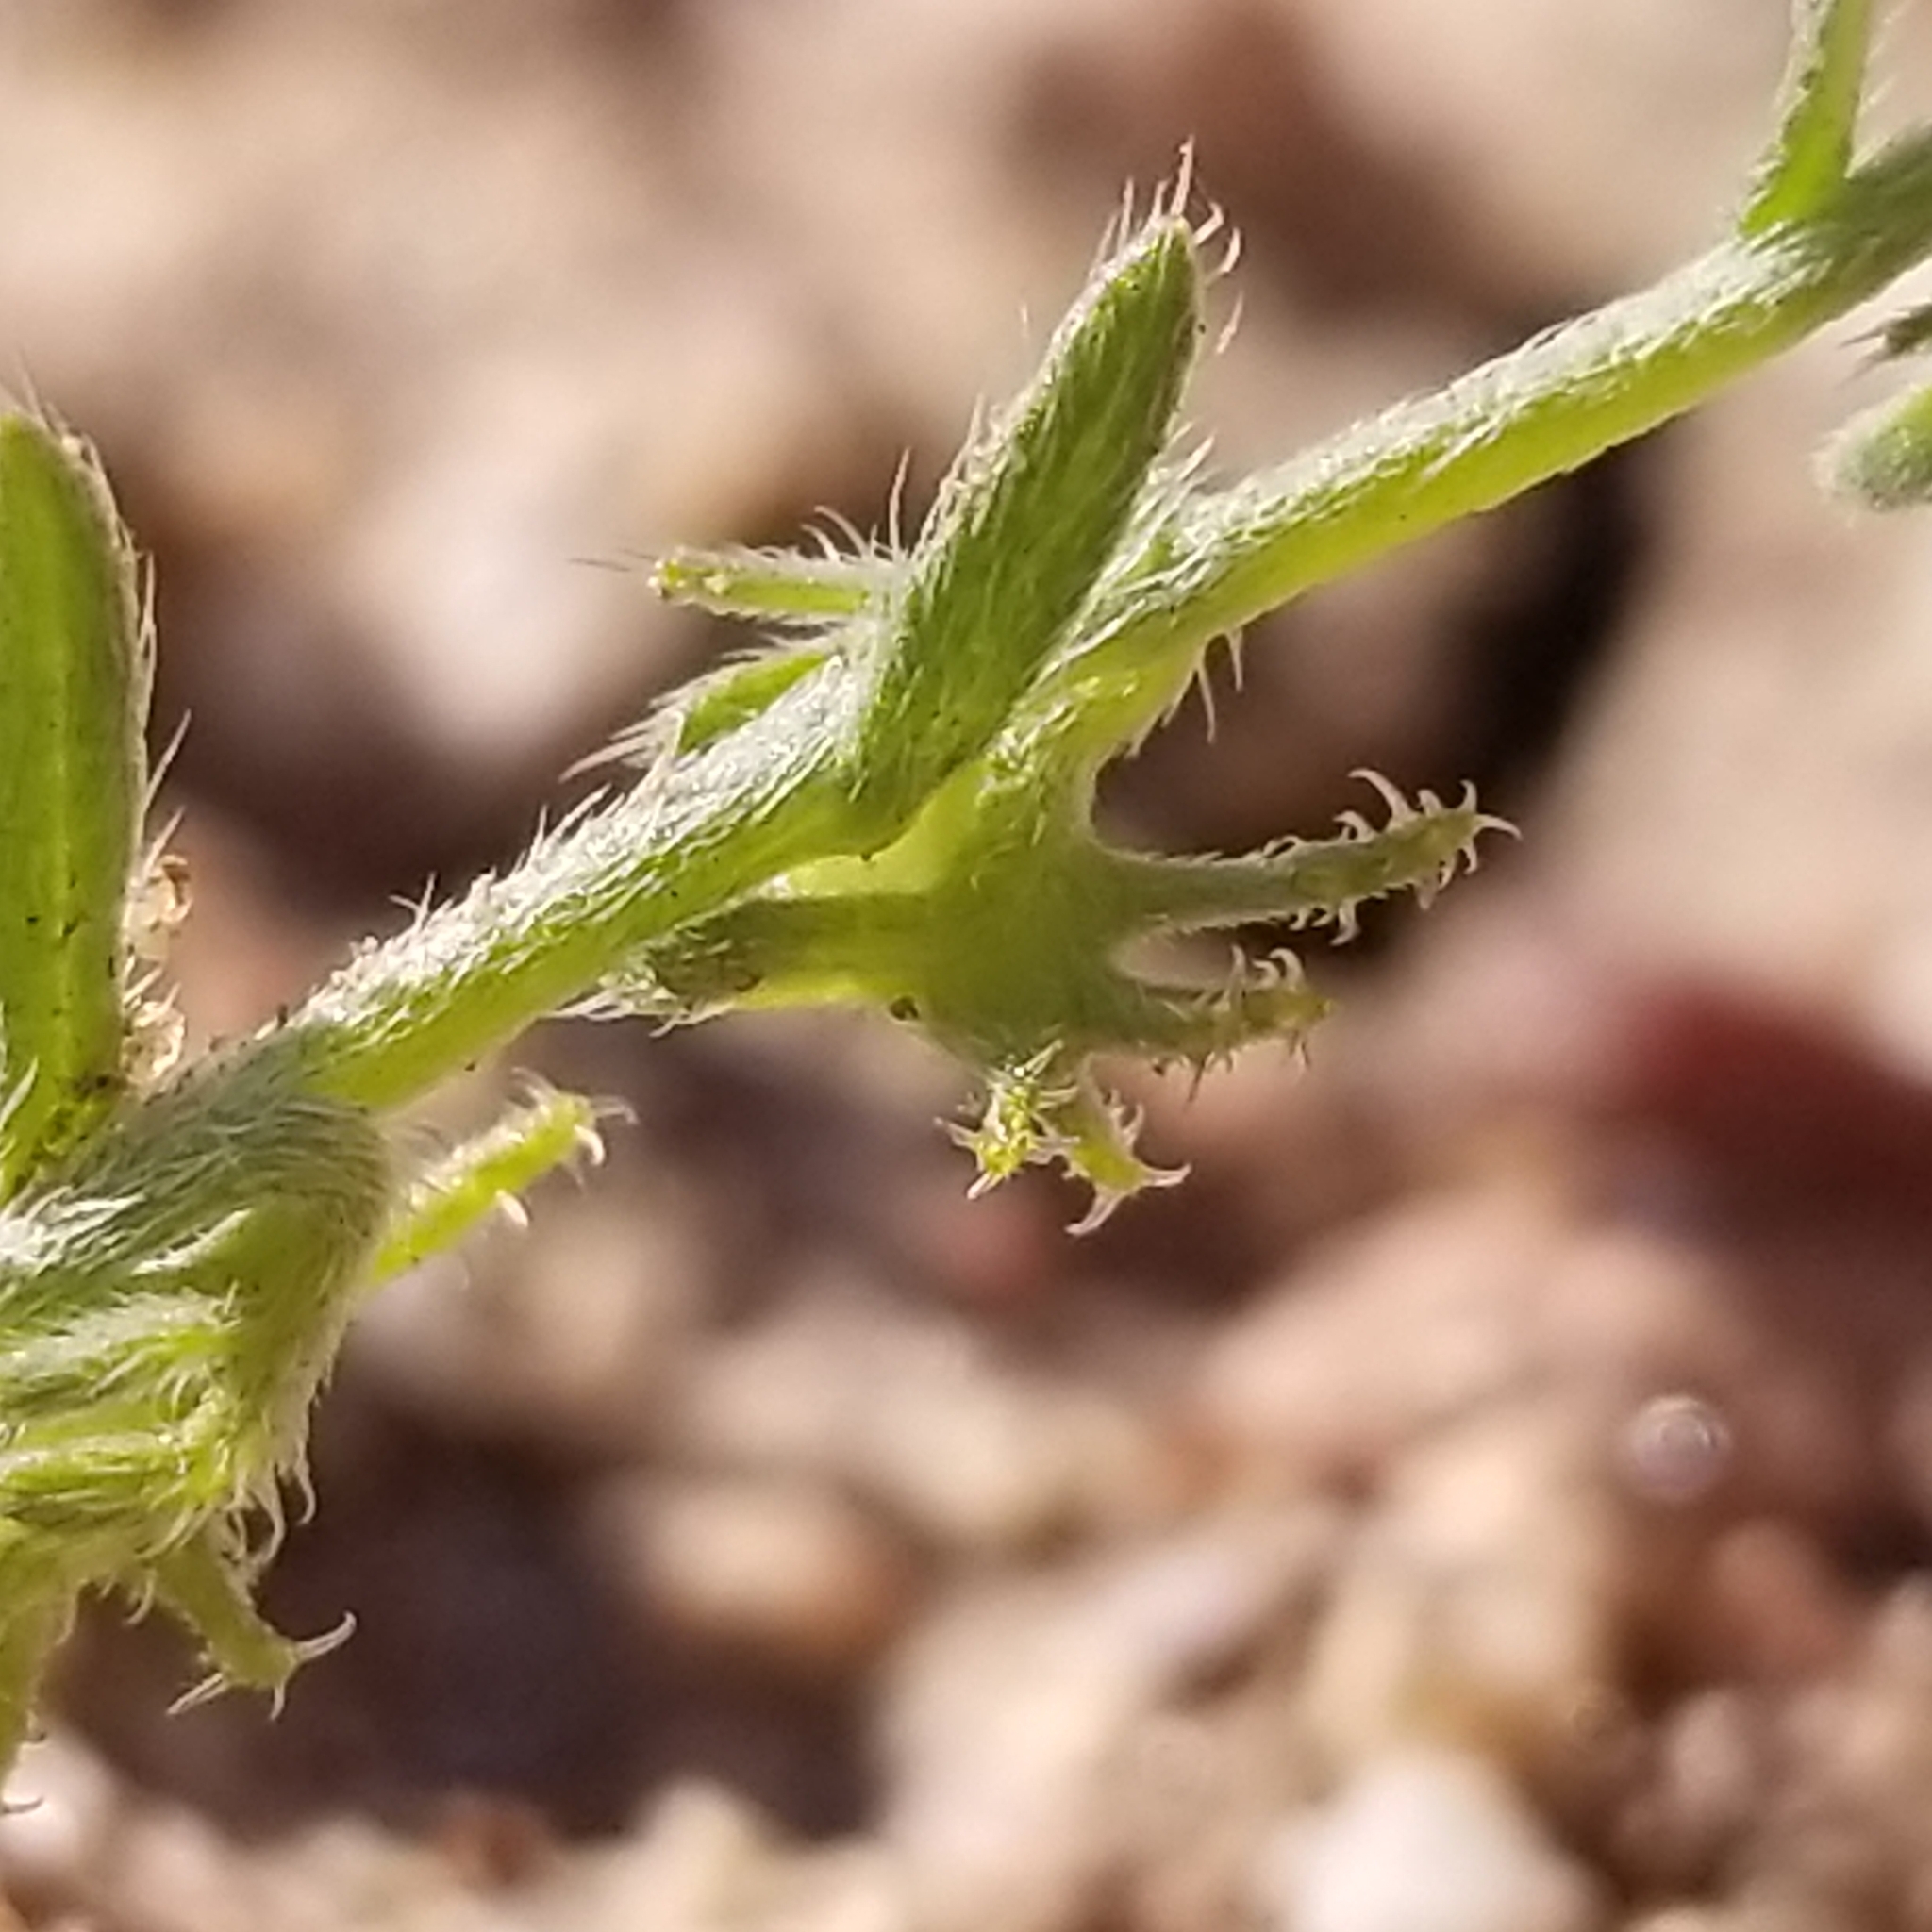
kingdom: Plantae
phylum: Tracheophyta
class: Magnoliopsida
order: Boraginales
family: Boraginaceae
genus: Harpagonella
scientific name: Harpagonella palmeri
